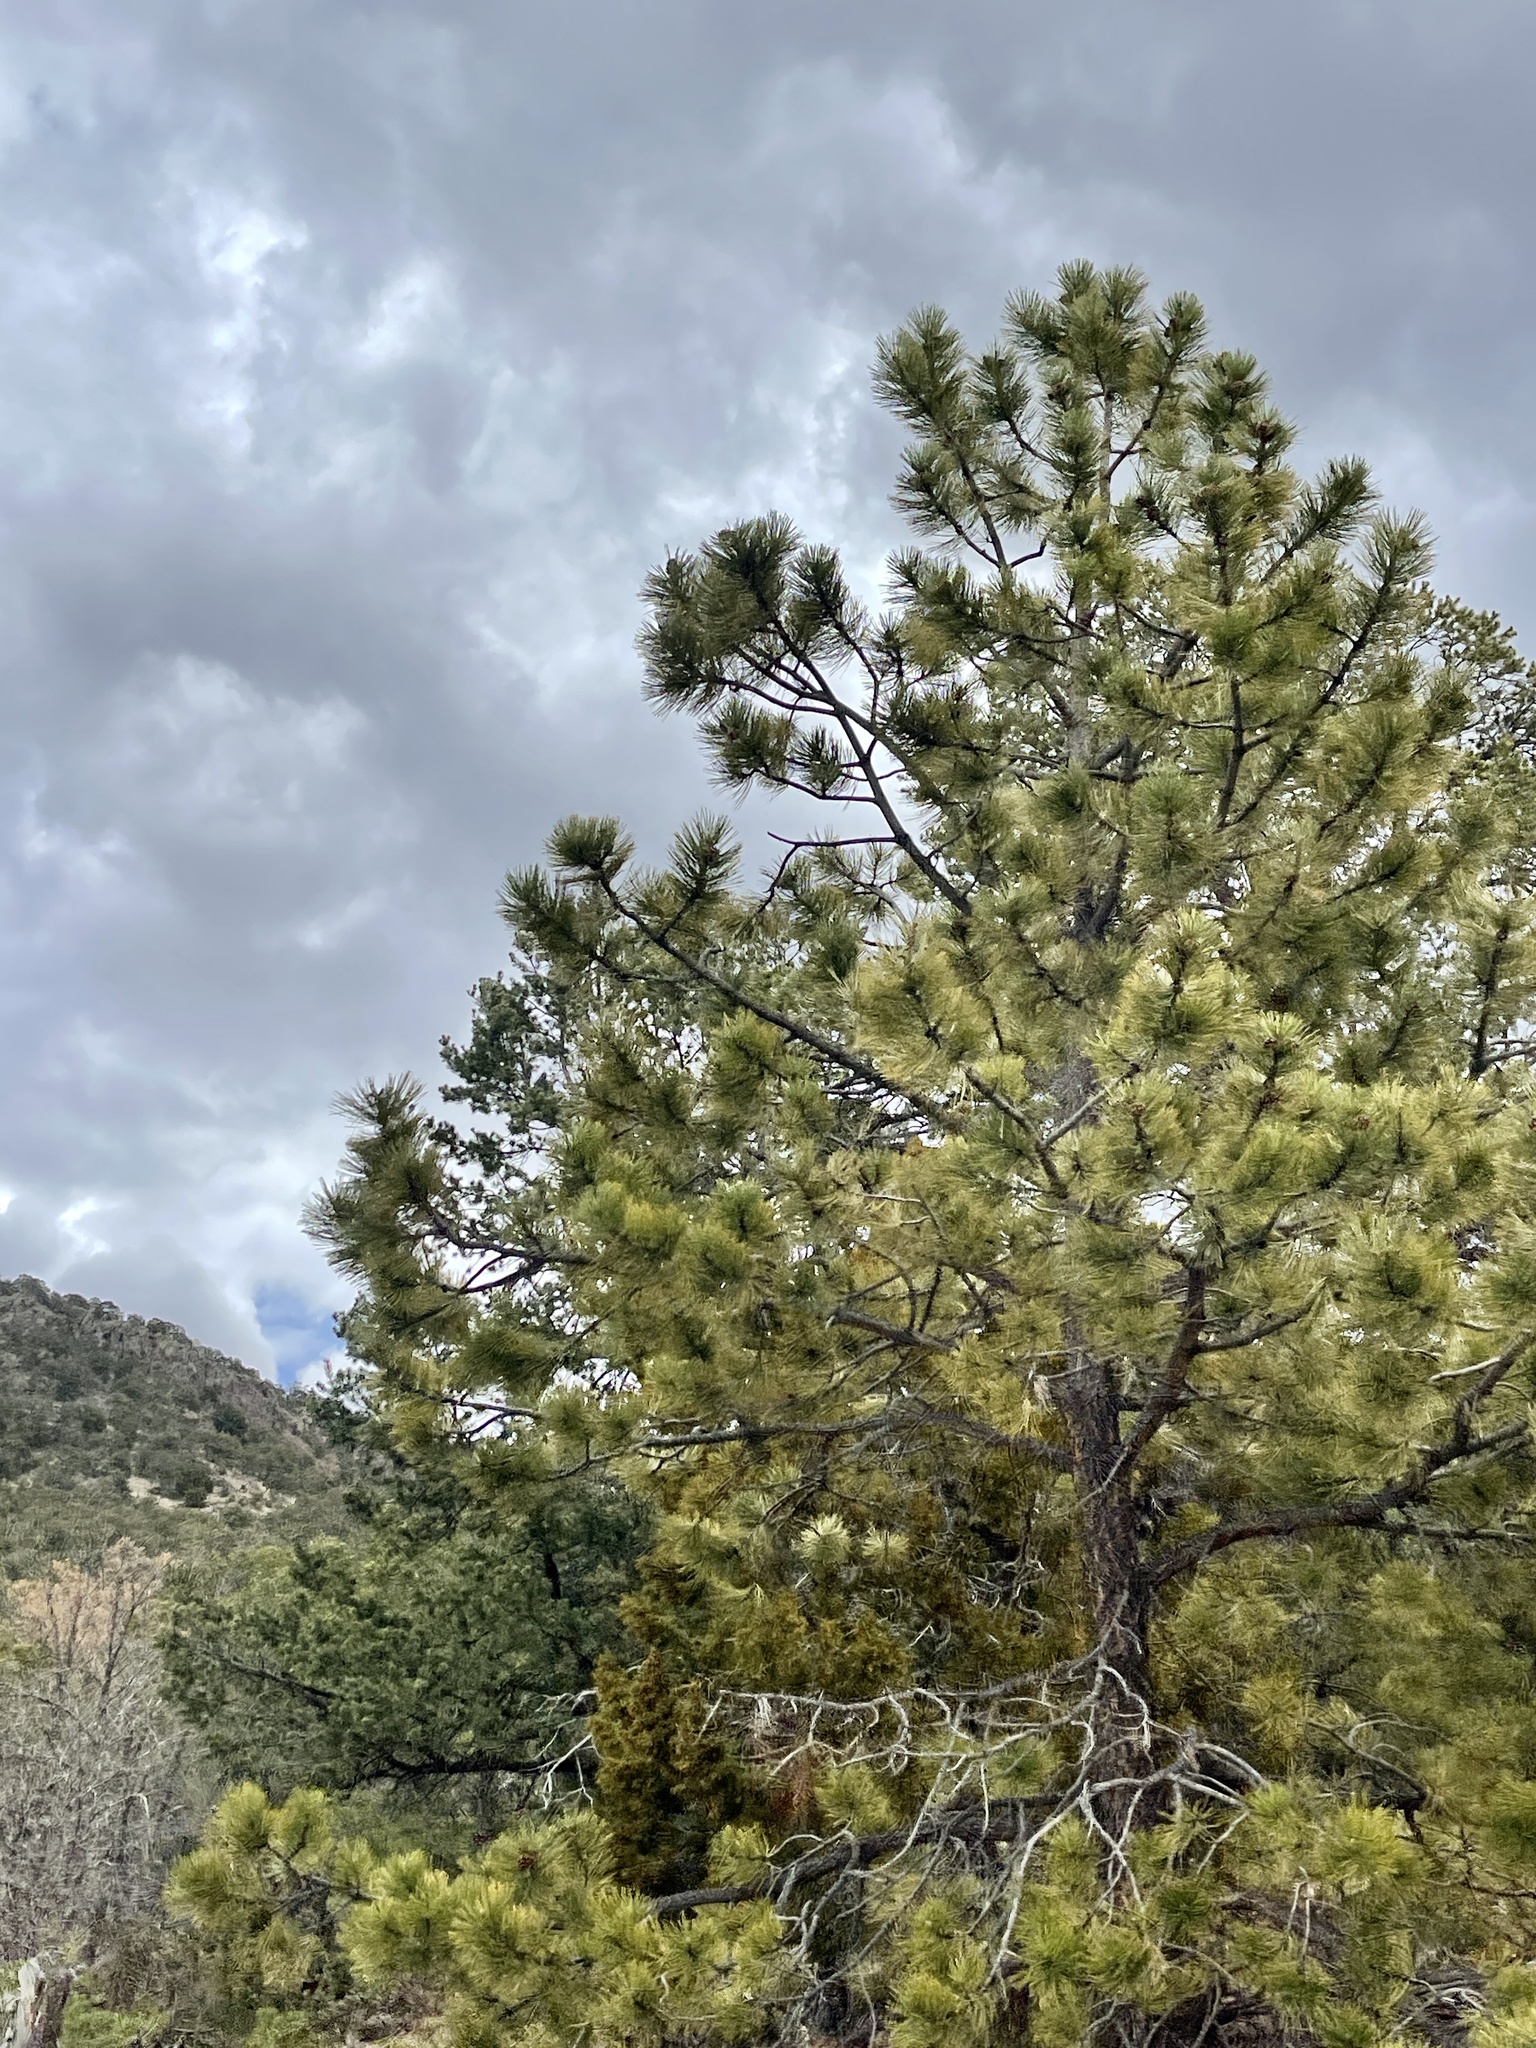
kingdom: Plantae
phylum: Tracheophyta
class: Pinopsida
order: Pinales
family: Pinaceae
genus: Pinus
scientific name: Pinus ponderosa
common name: Western yellow-pine
